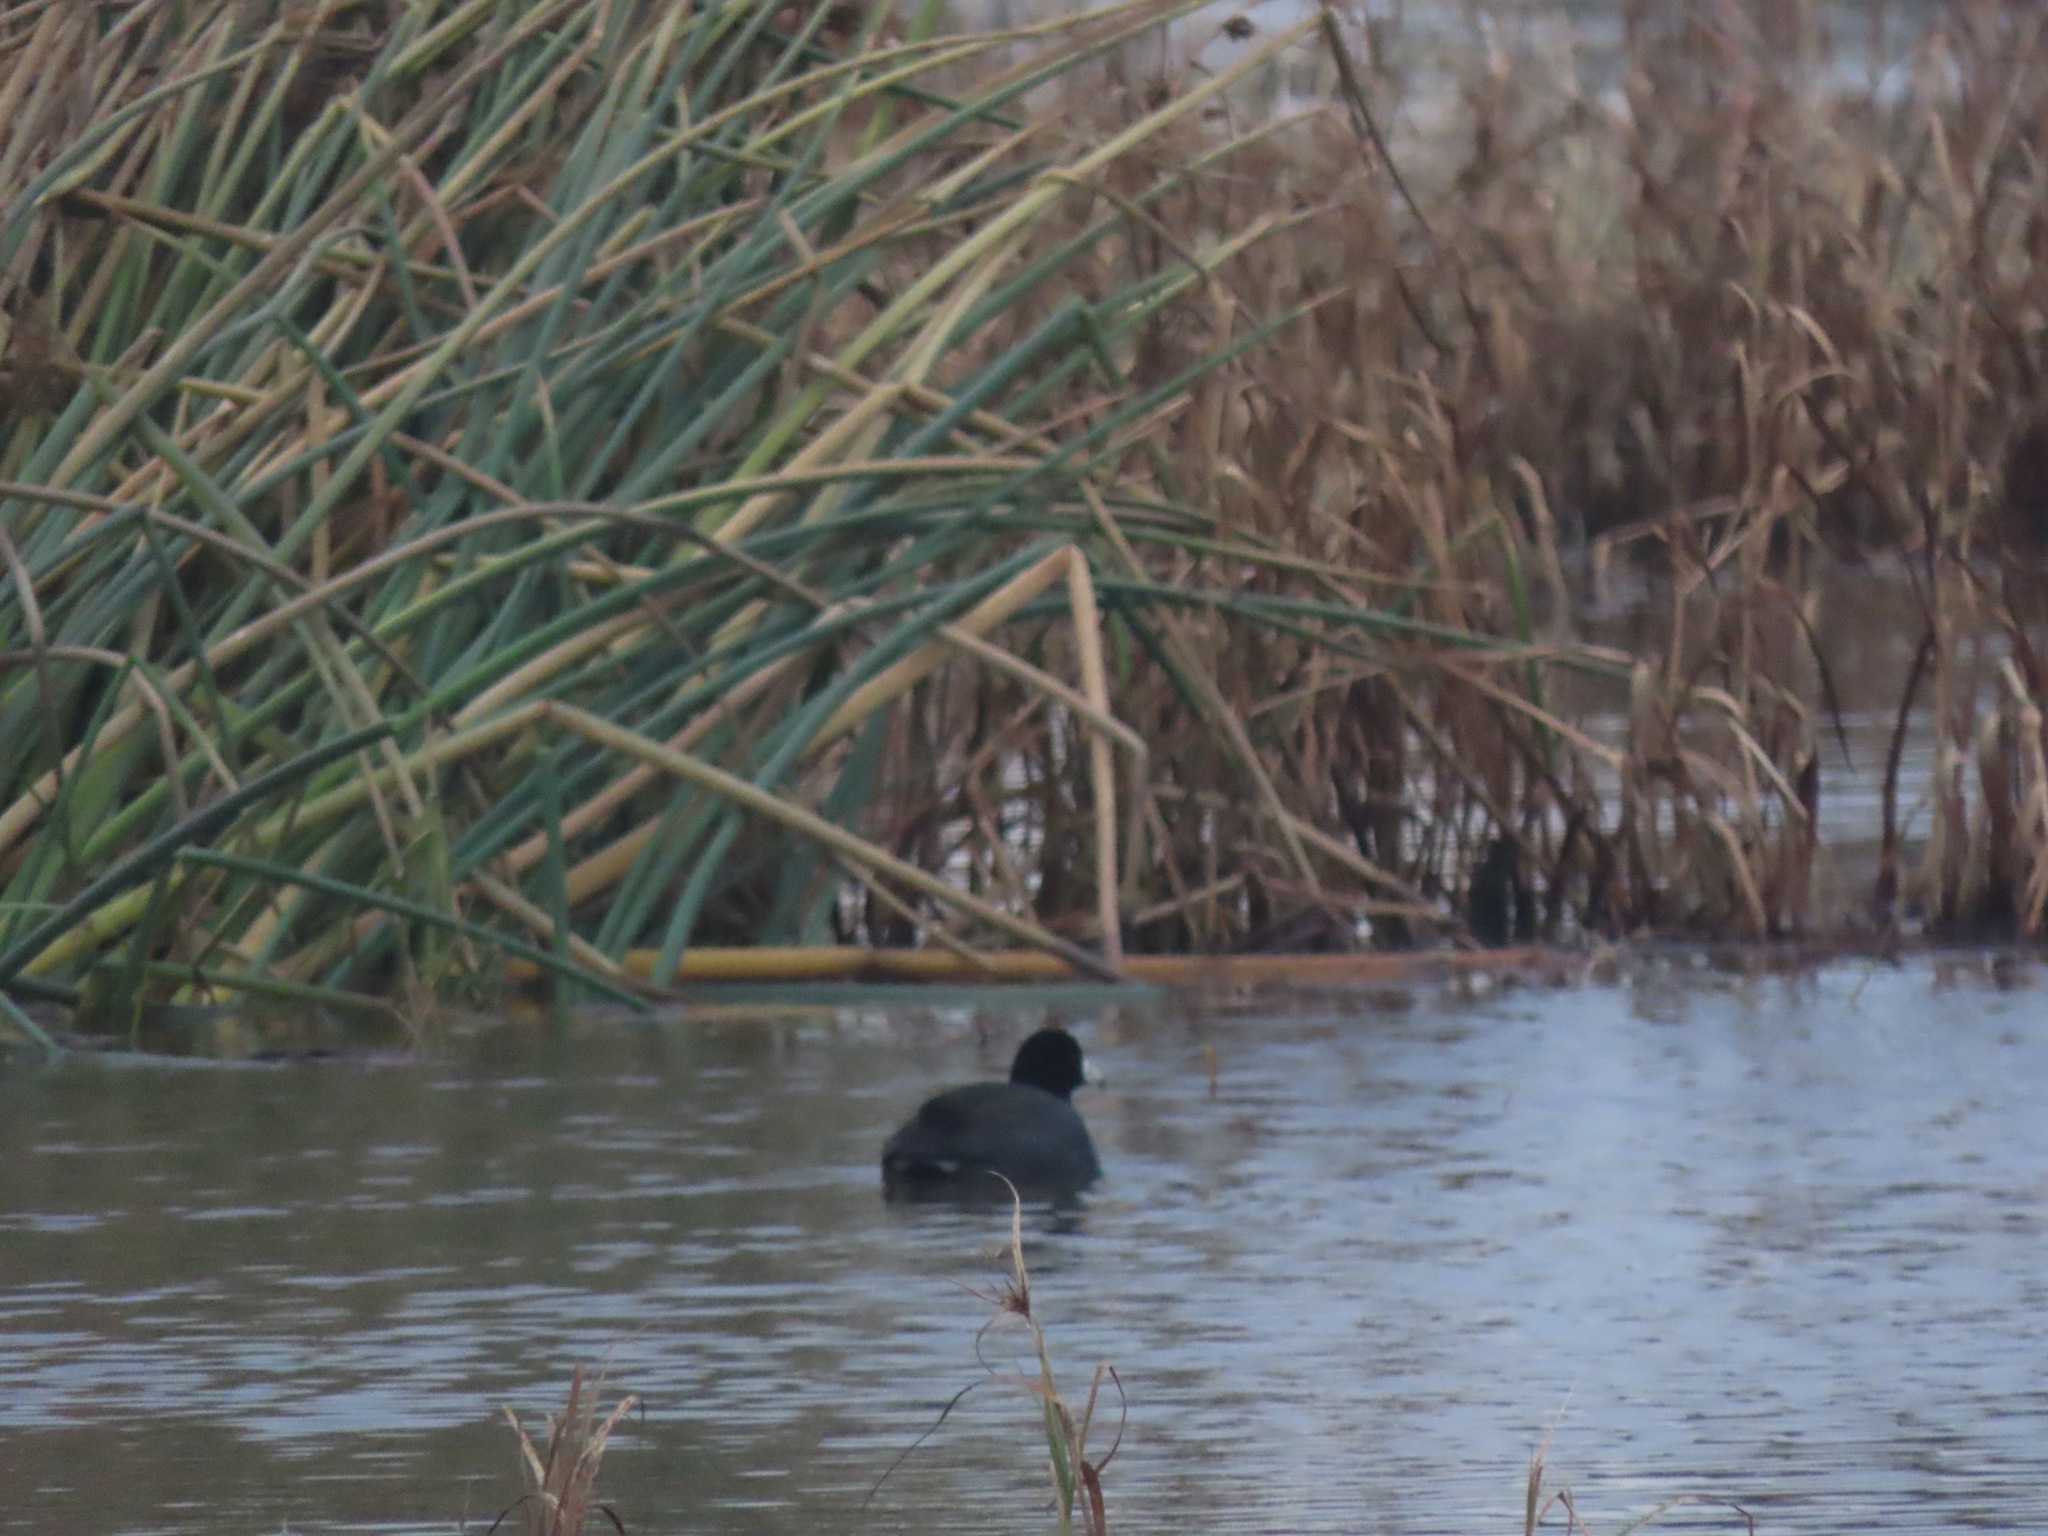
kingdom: Animalia
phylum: Chordata
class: Aves
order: Gruiformes
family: Rallidae
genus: Fulica
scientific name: Fulica americana
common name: American coot
